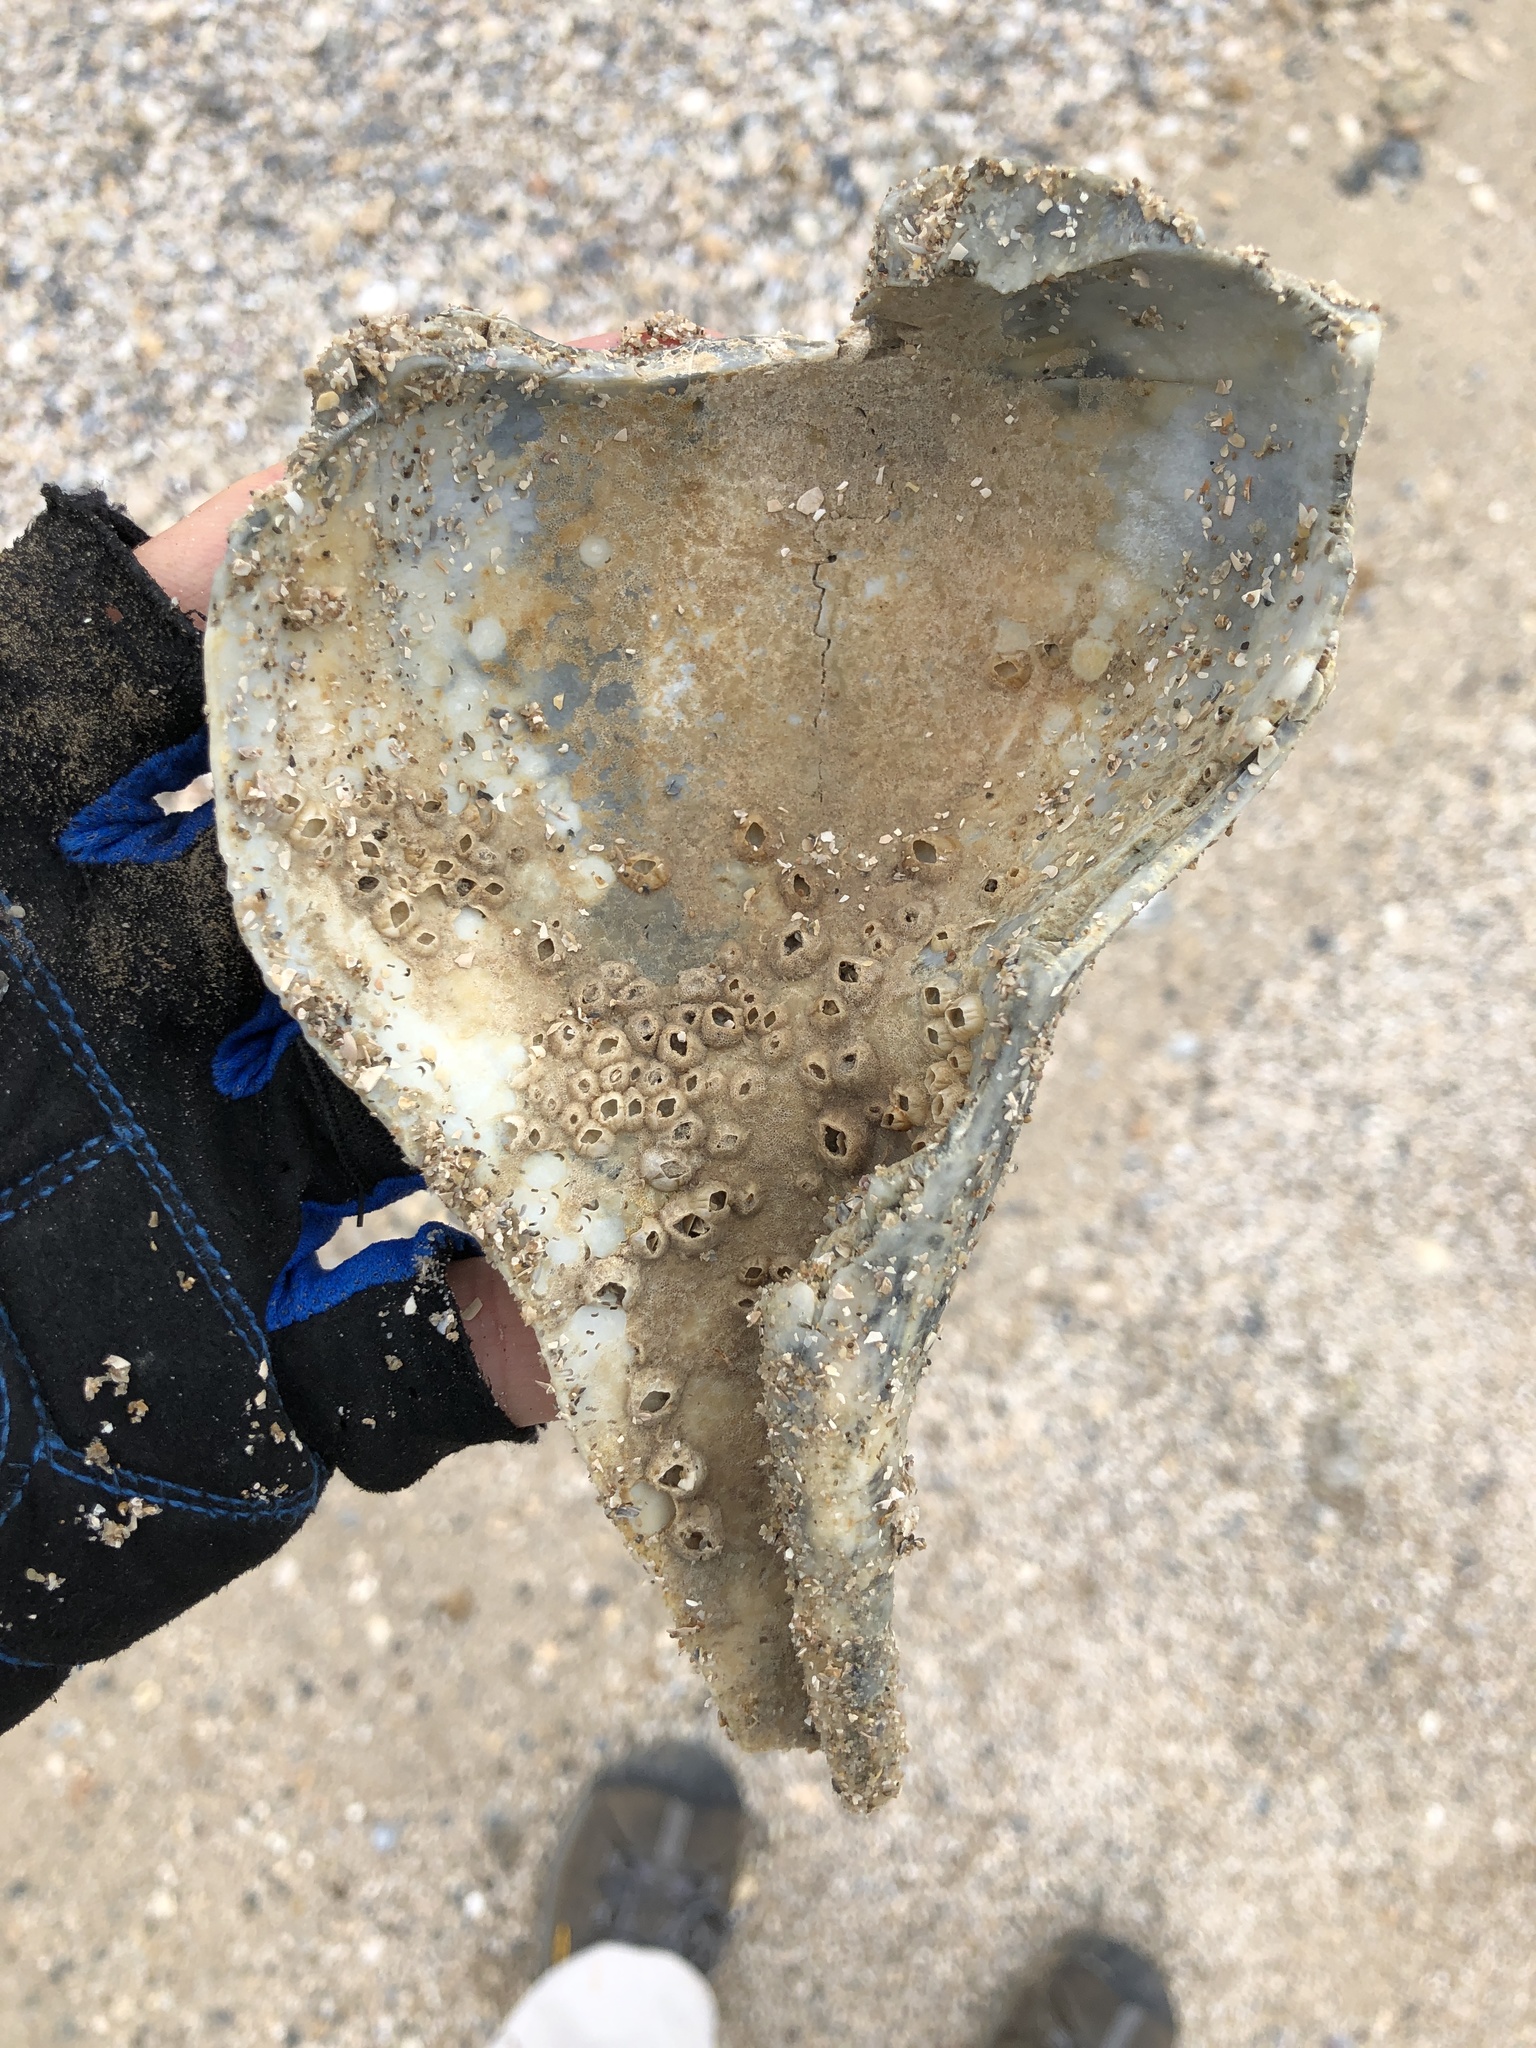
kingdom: Animalia
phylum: Mollusca
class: Gastropoda
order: Neogastropoda
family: Busyconidae
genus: Sinistrofulgur
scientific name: Sinistrofulgur pulleyi
